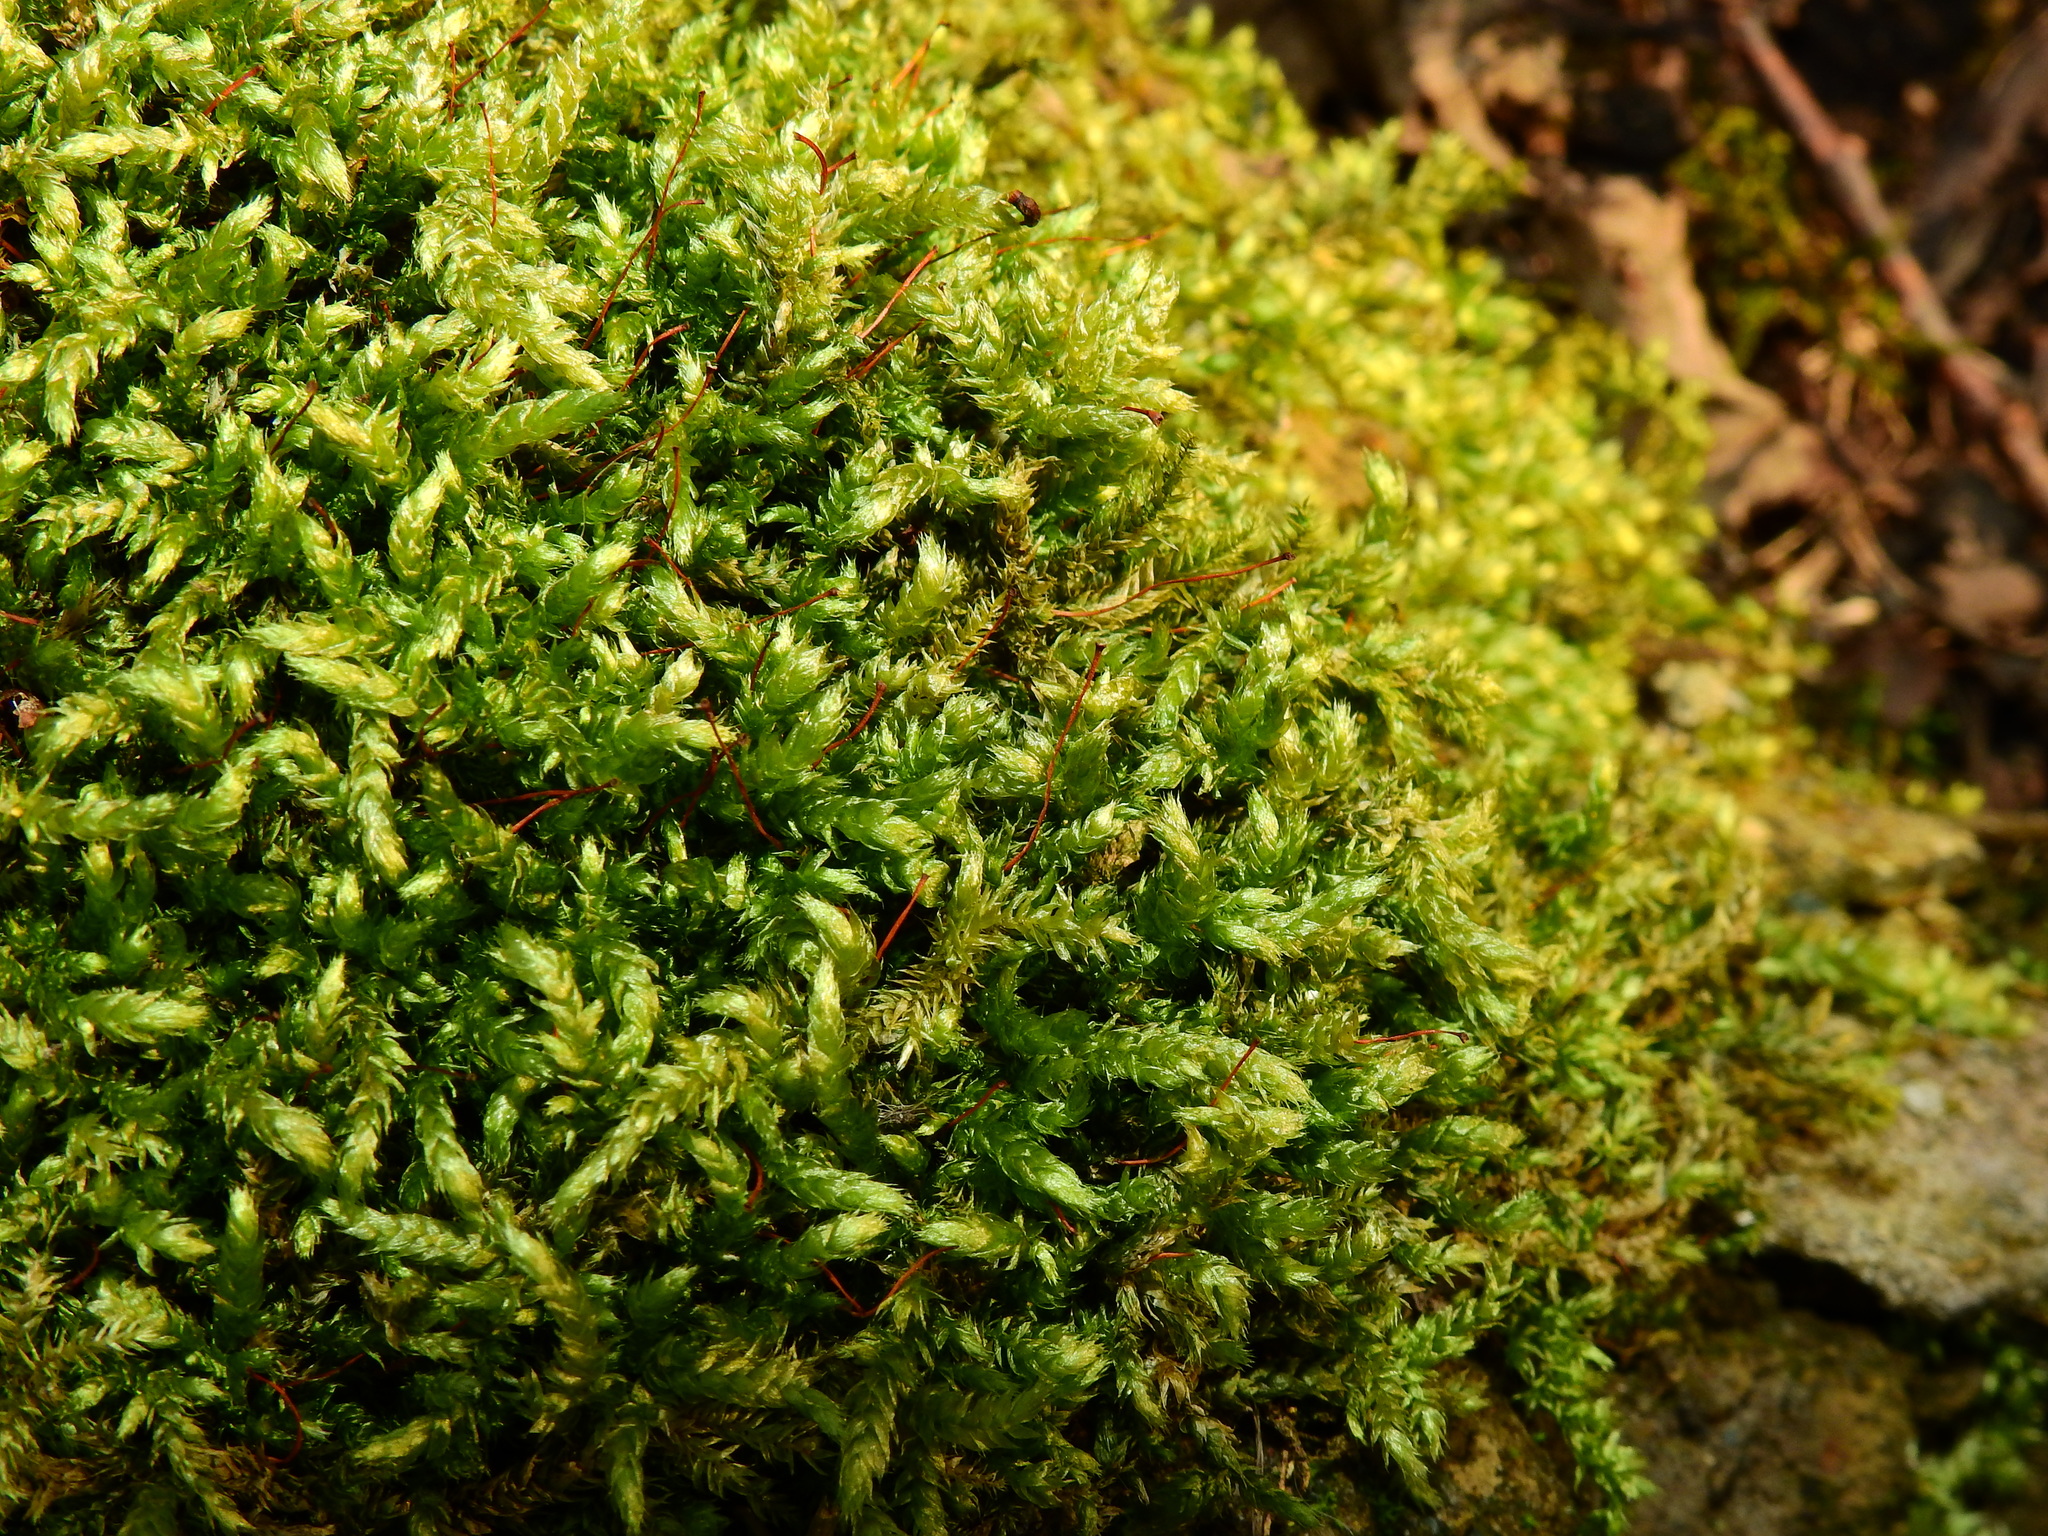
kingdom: Plantae
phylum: Bryophyta
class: Bryopsida
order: Hypnales
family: Brachytheciaceae
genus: Brachythecium
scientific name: Brachythecium rutabulum
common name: Rough-stalked feather-moss
